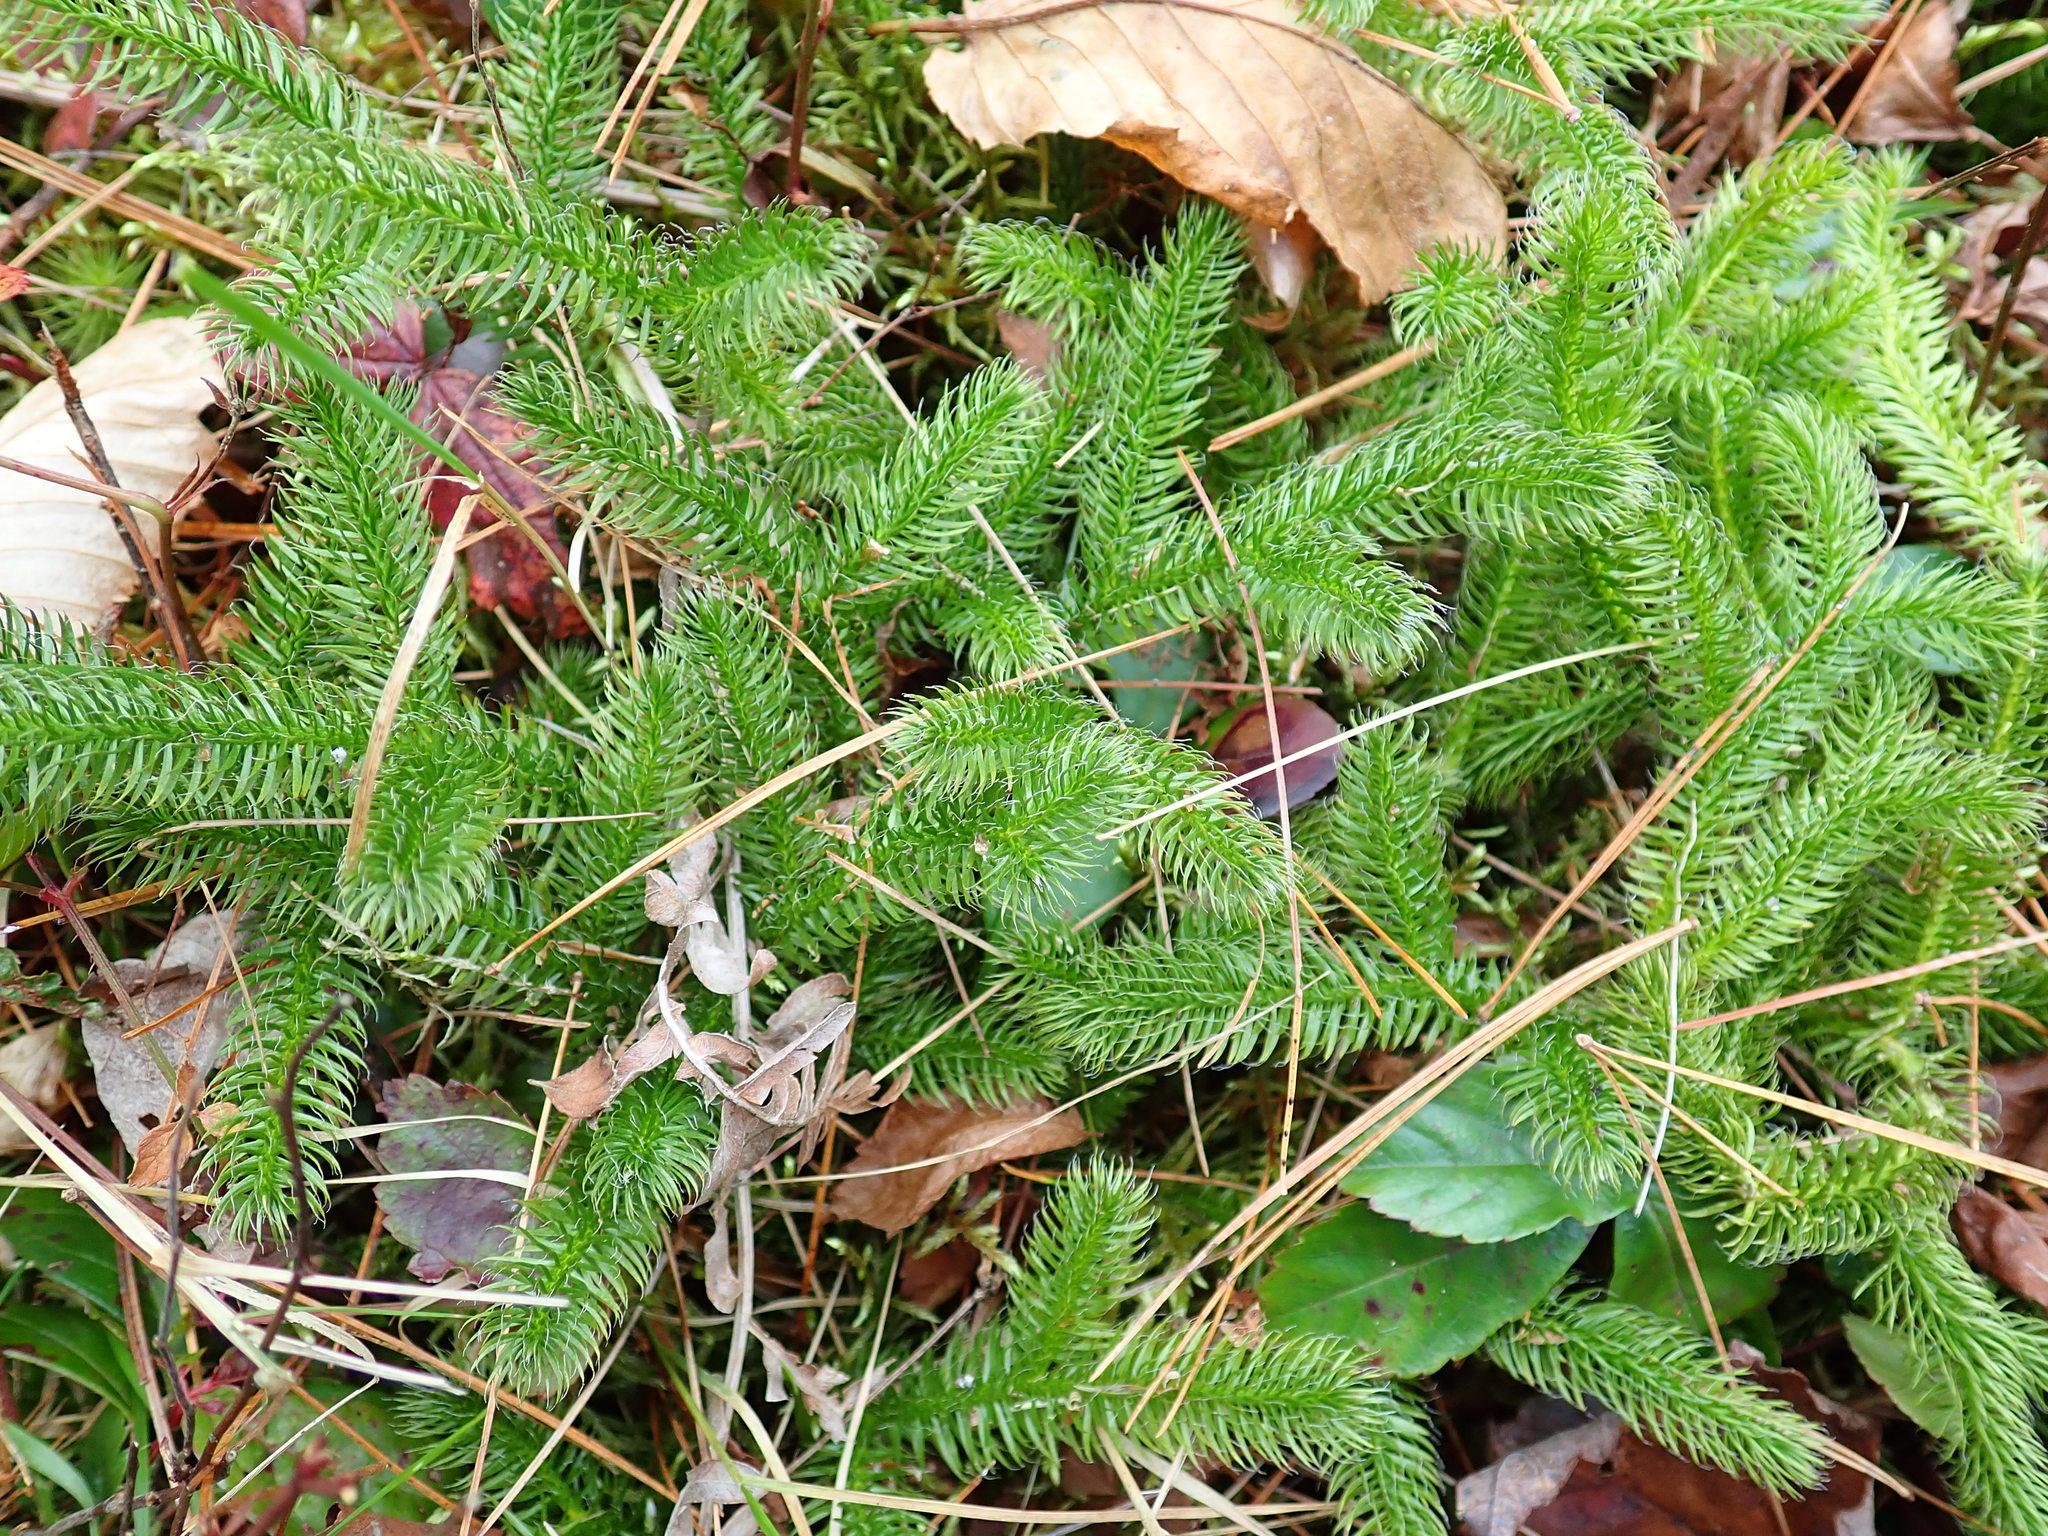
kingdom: Plantae
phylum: Tracheophyta
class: Lycopodiopsida
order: Lycopodiales
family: Lycopodiaceae
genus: Lycopodium
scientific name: Lycopodium clavatum
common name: Stag's-horn clubmoss
